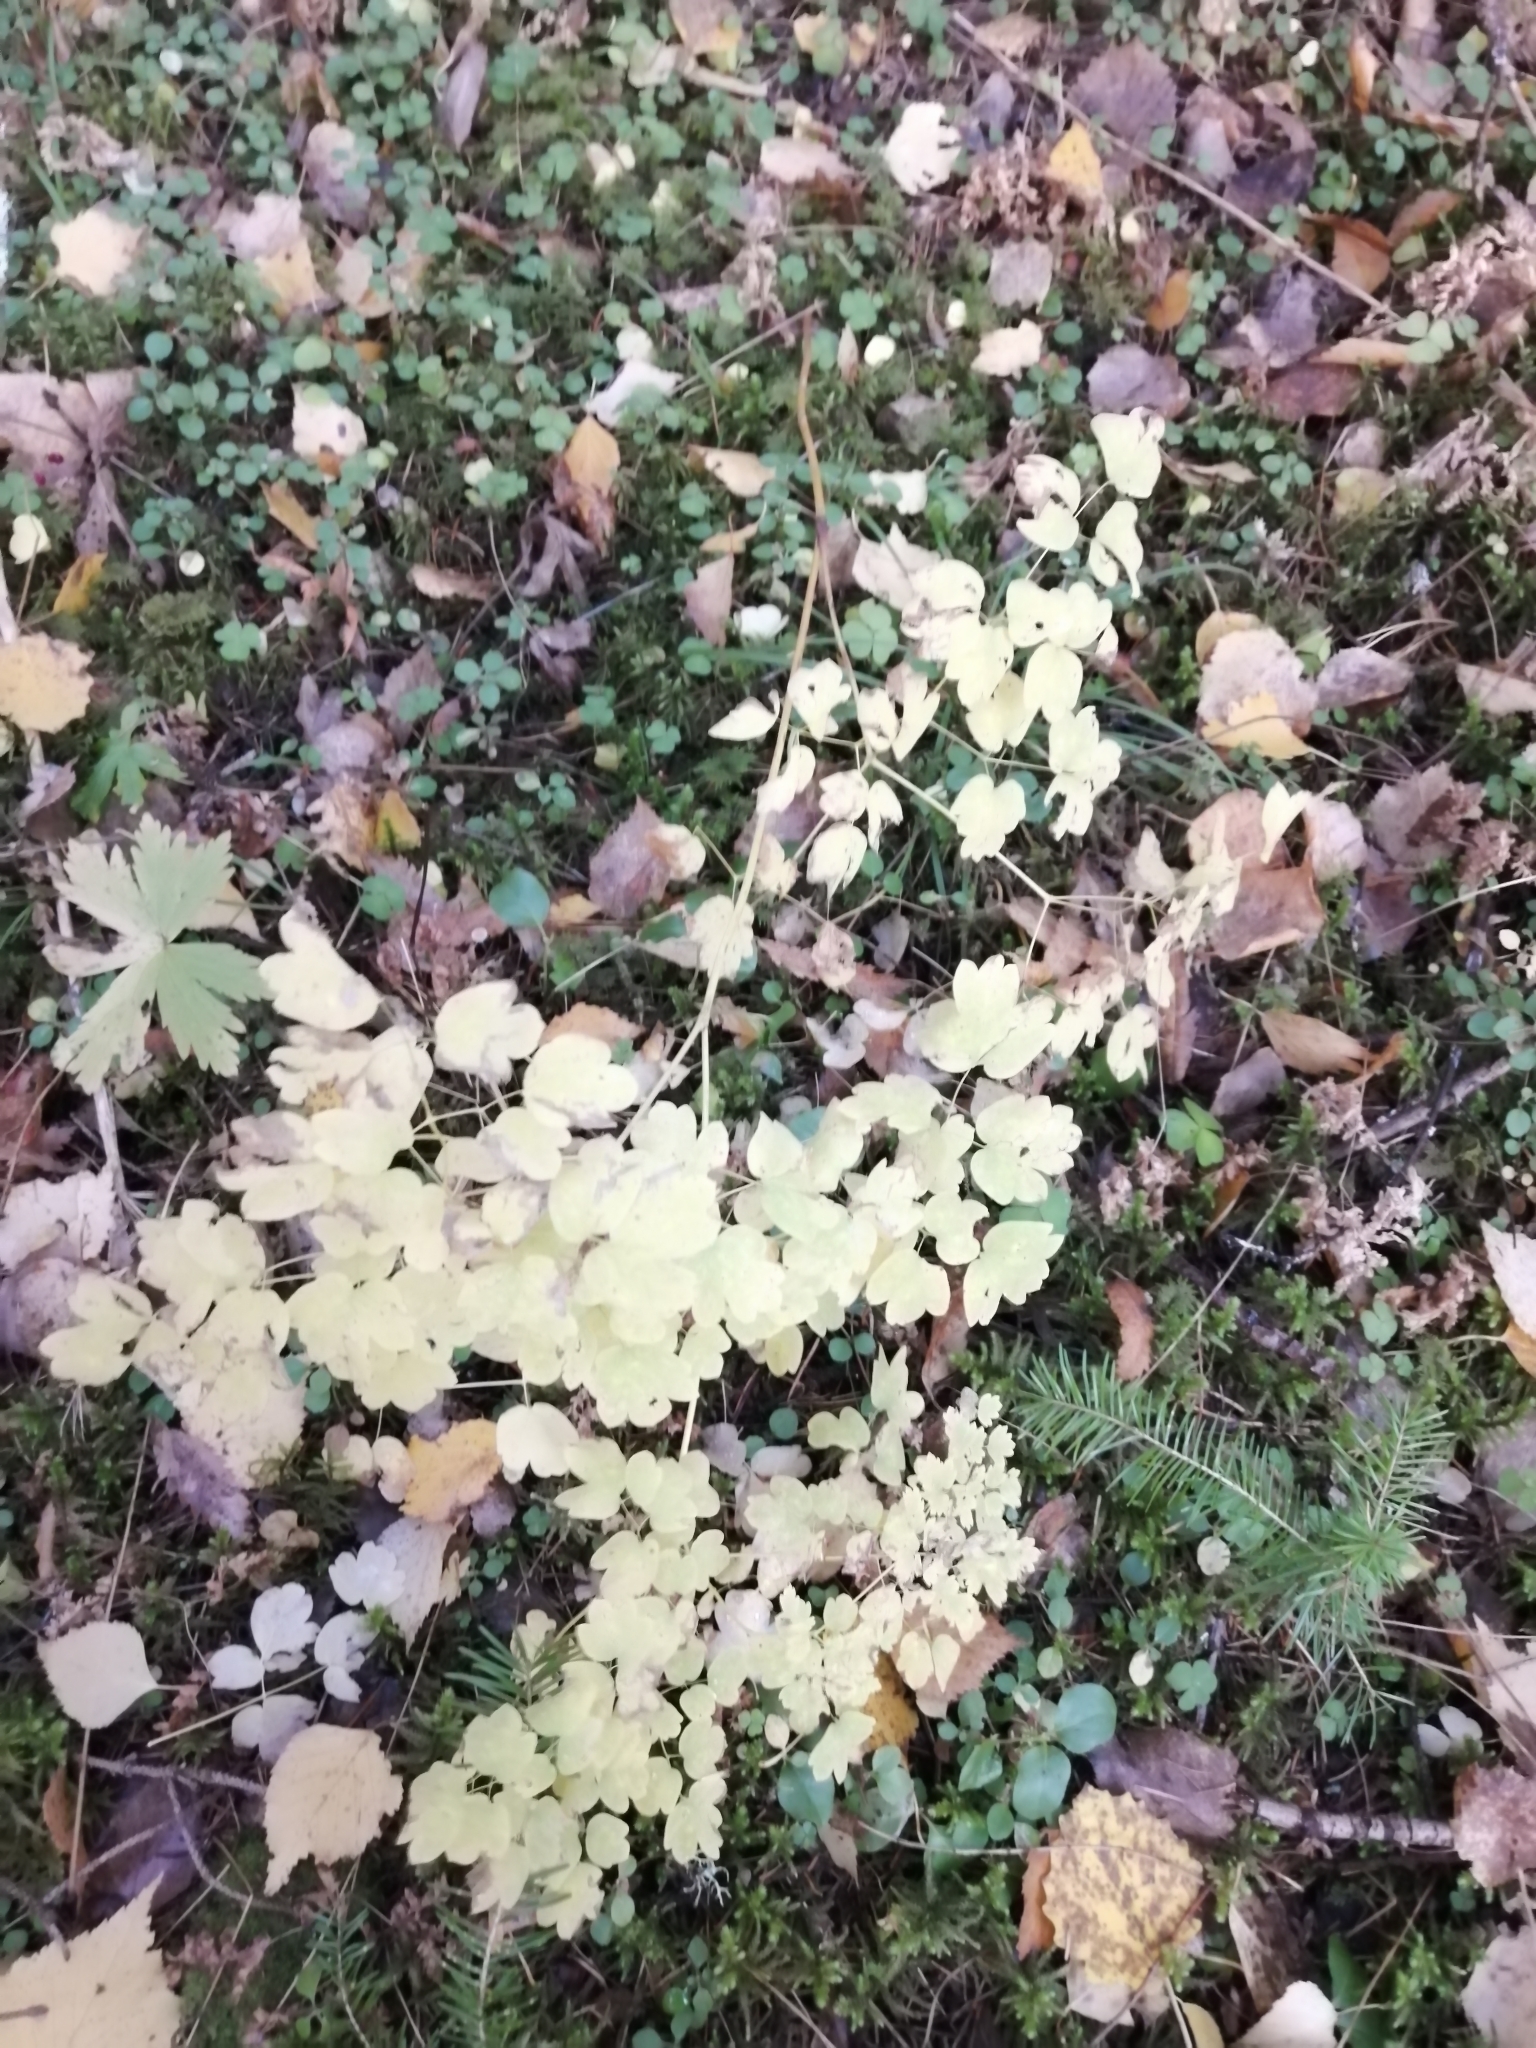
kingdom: Plantae
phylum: Tracheophyta
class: Magnoliopsida
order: Ranunculales
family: Ranunculaceae
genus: Thalictrum
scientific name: Thalictrum minus
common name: Lesser meadow-rue
